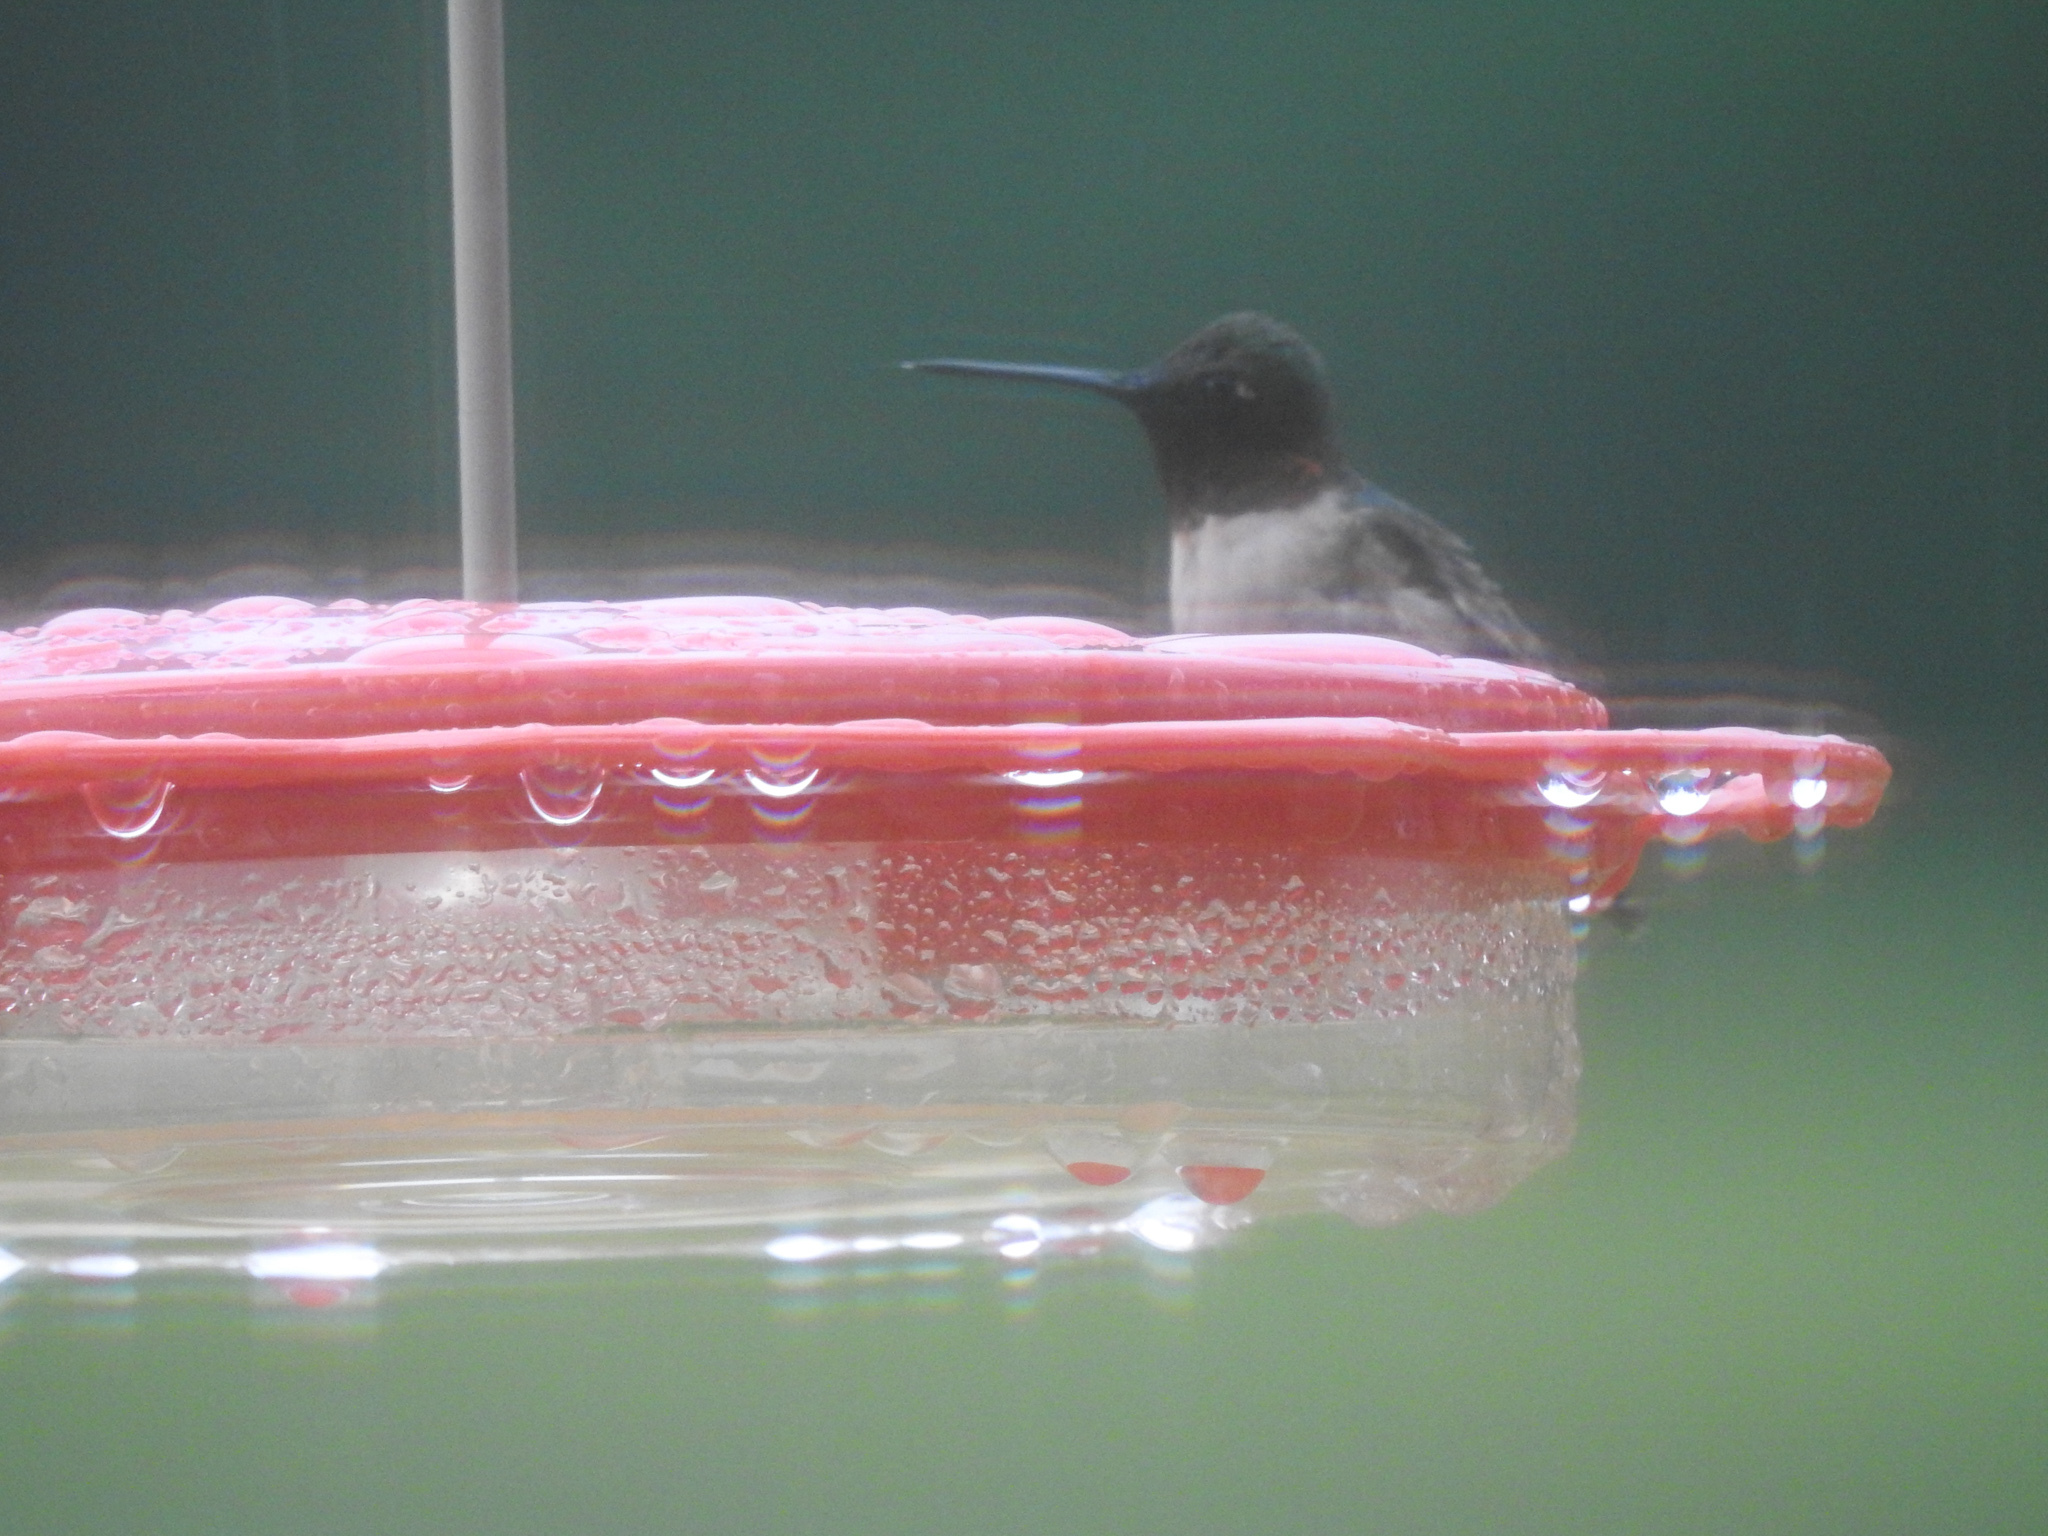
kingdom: Animalia
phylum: Chordata
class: Aves
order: Apodiformes
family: Trochilidae
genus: Archilochus
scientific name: Archilochus colubris
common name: Ruby-throated hummingbird
